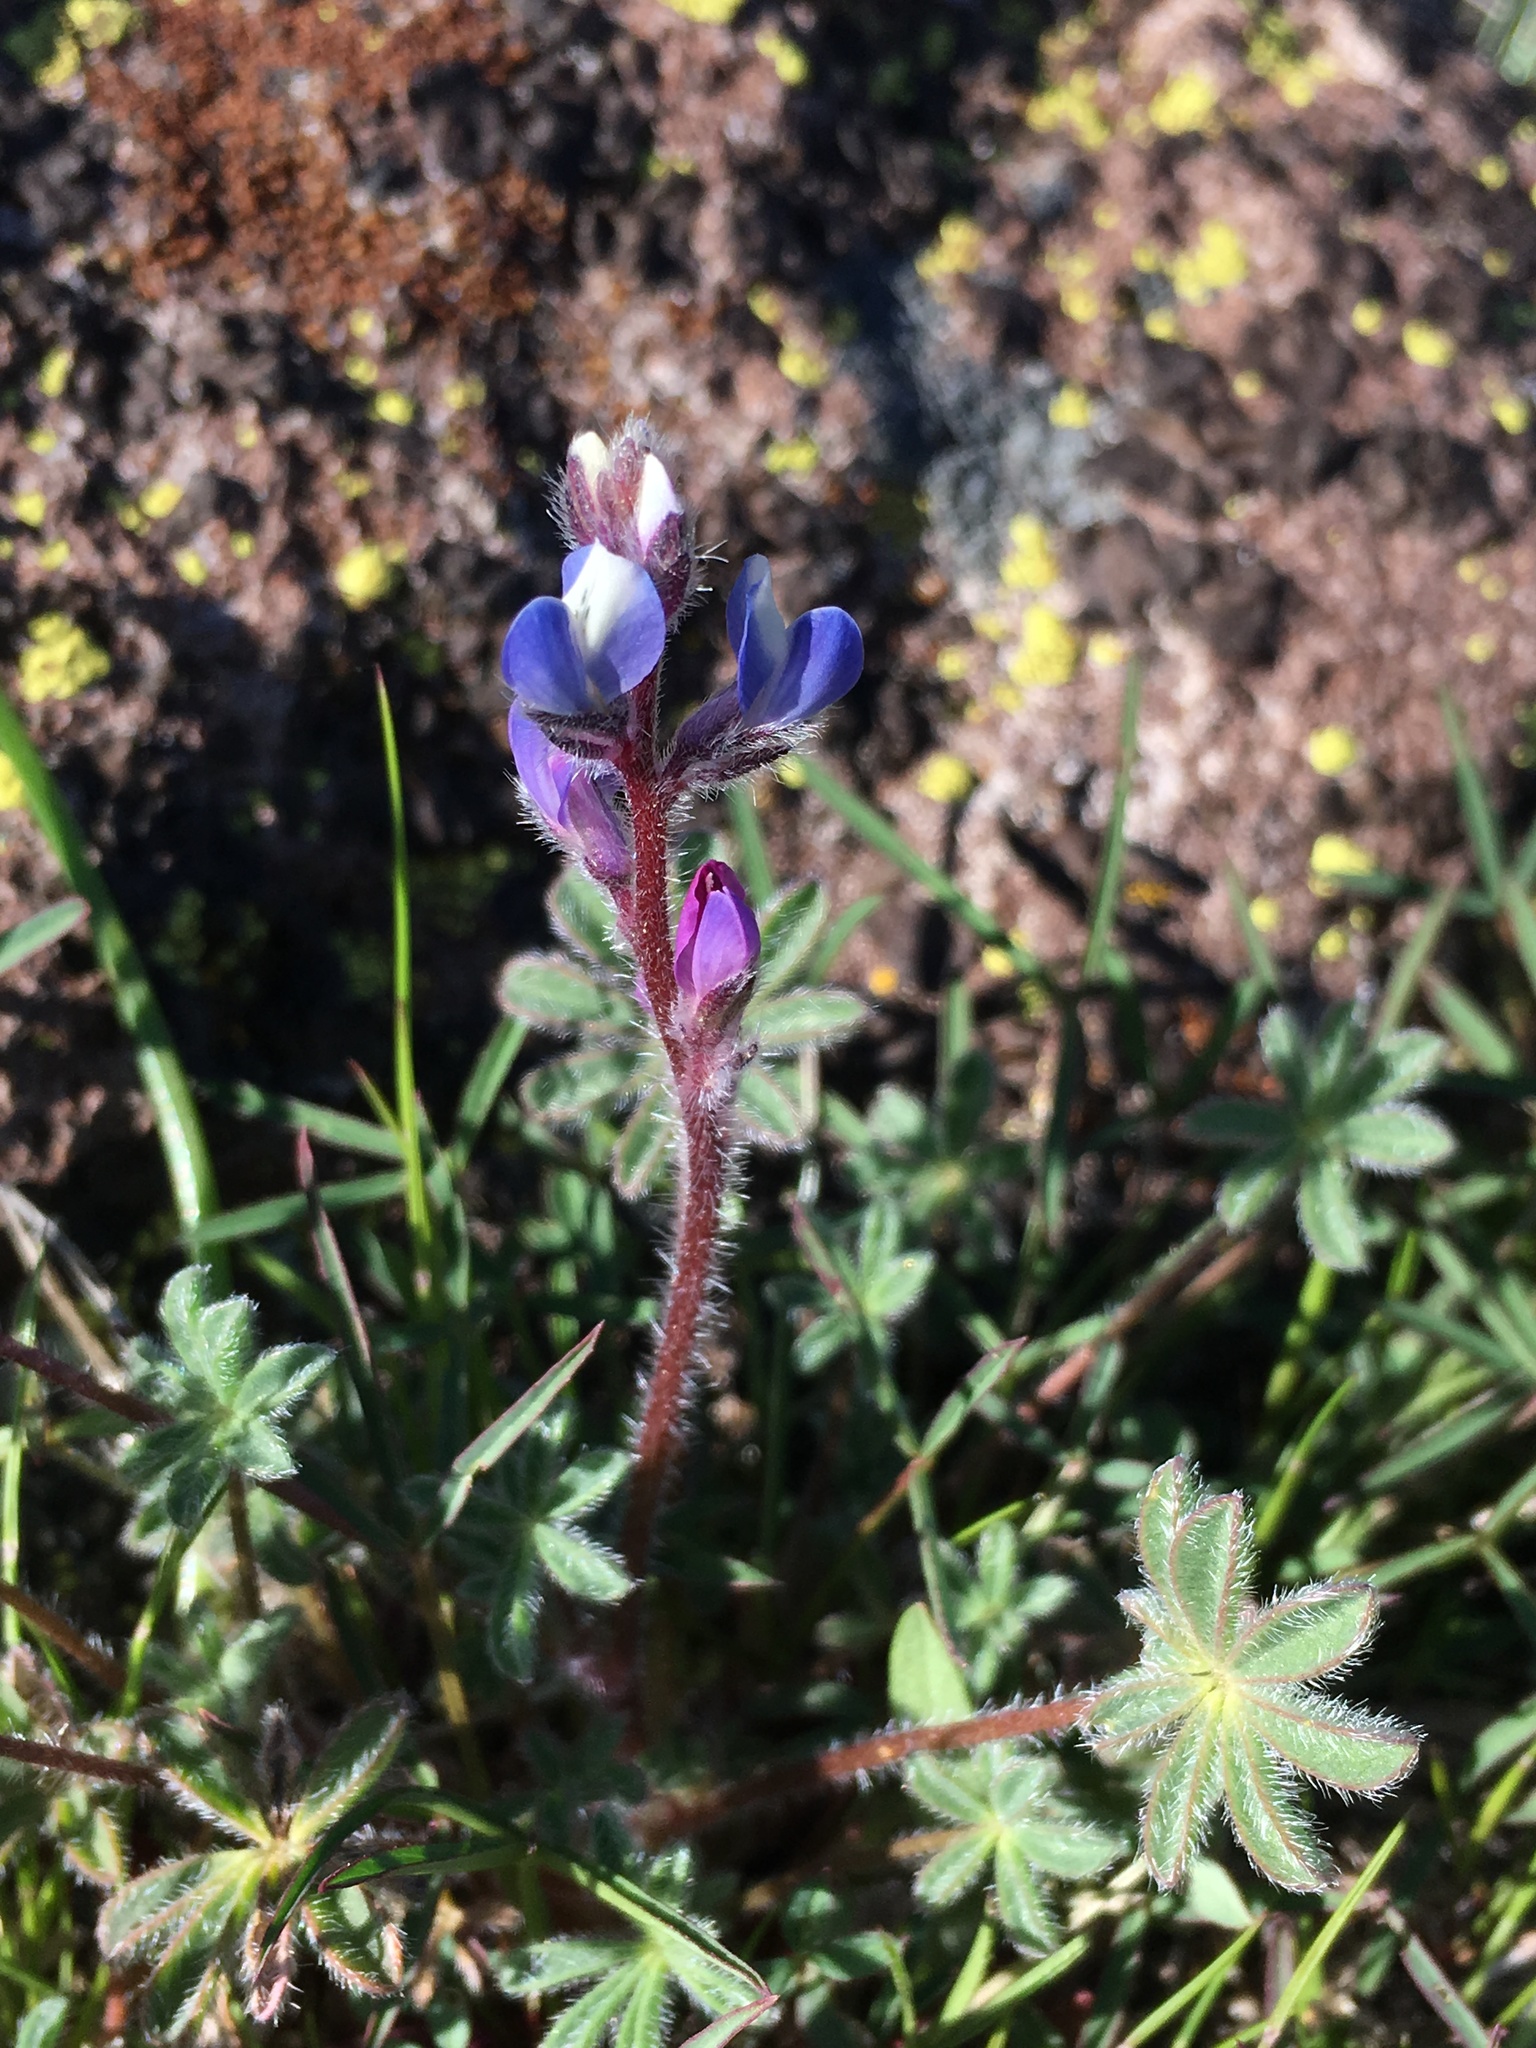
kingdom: Plantae
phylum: Tracheophyta
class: Magnoliopsida
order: Fabales
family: Fabaceae
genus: Lupinus
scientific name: Lupinus concinnus
